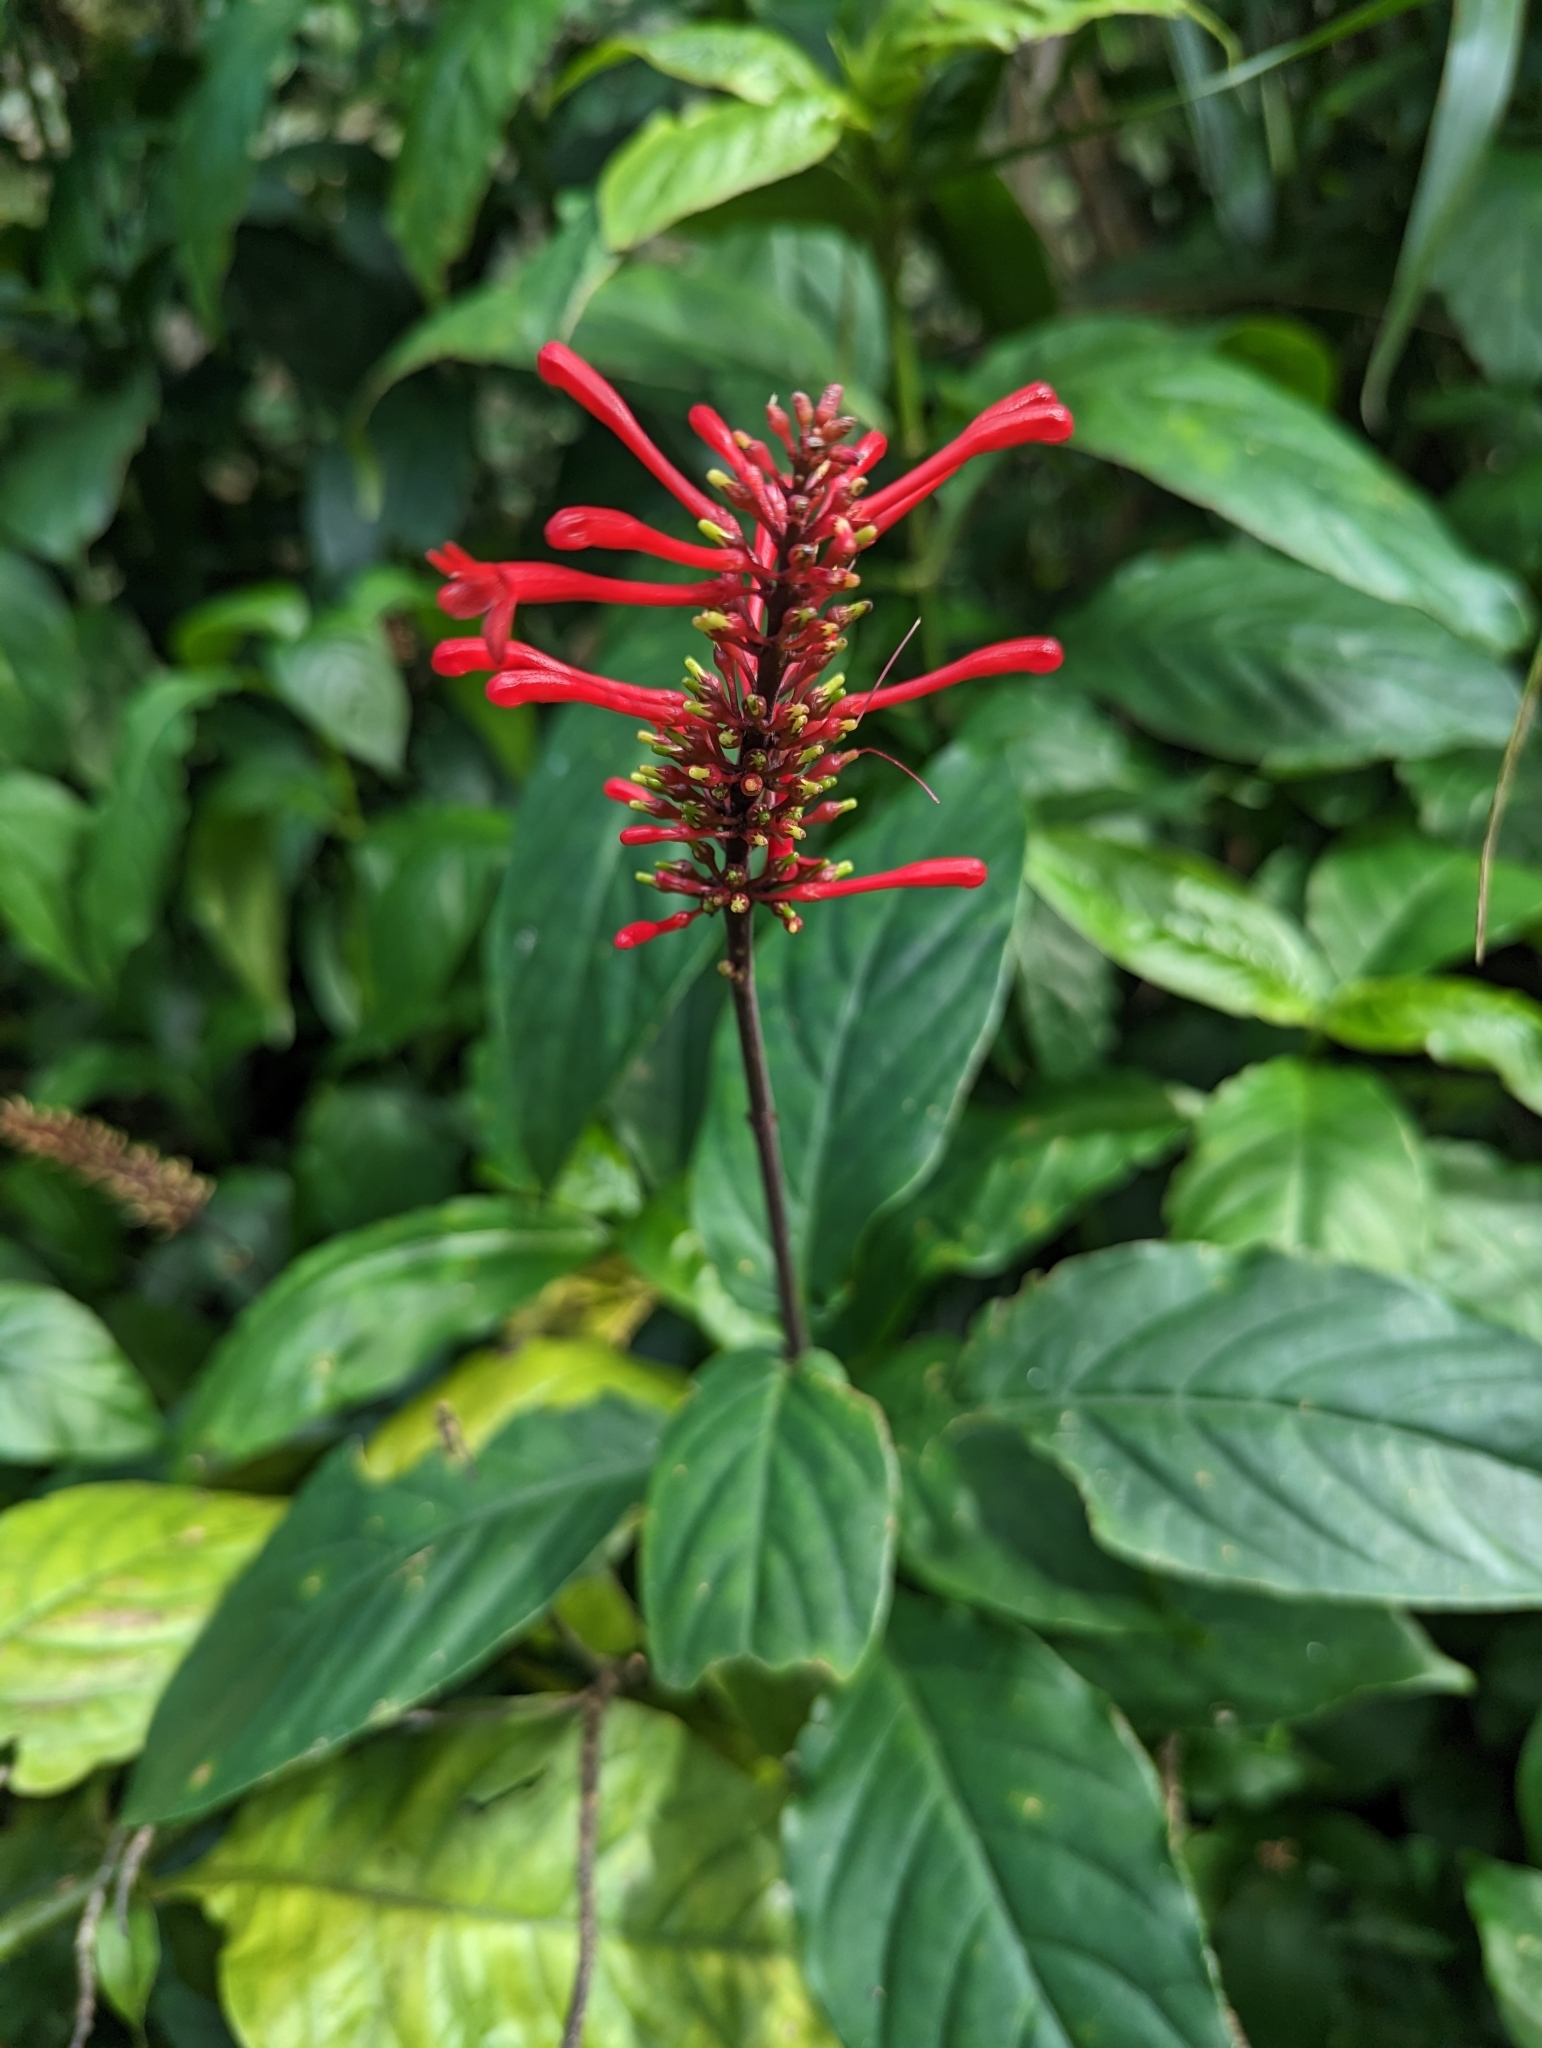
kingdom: Plantae
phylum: Tracheophyta
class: Magnoliopsida
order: Lamiales
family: Acanthaceae
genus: Odontonema
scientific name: Odontonema tubaeforme
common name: Firespike
